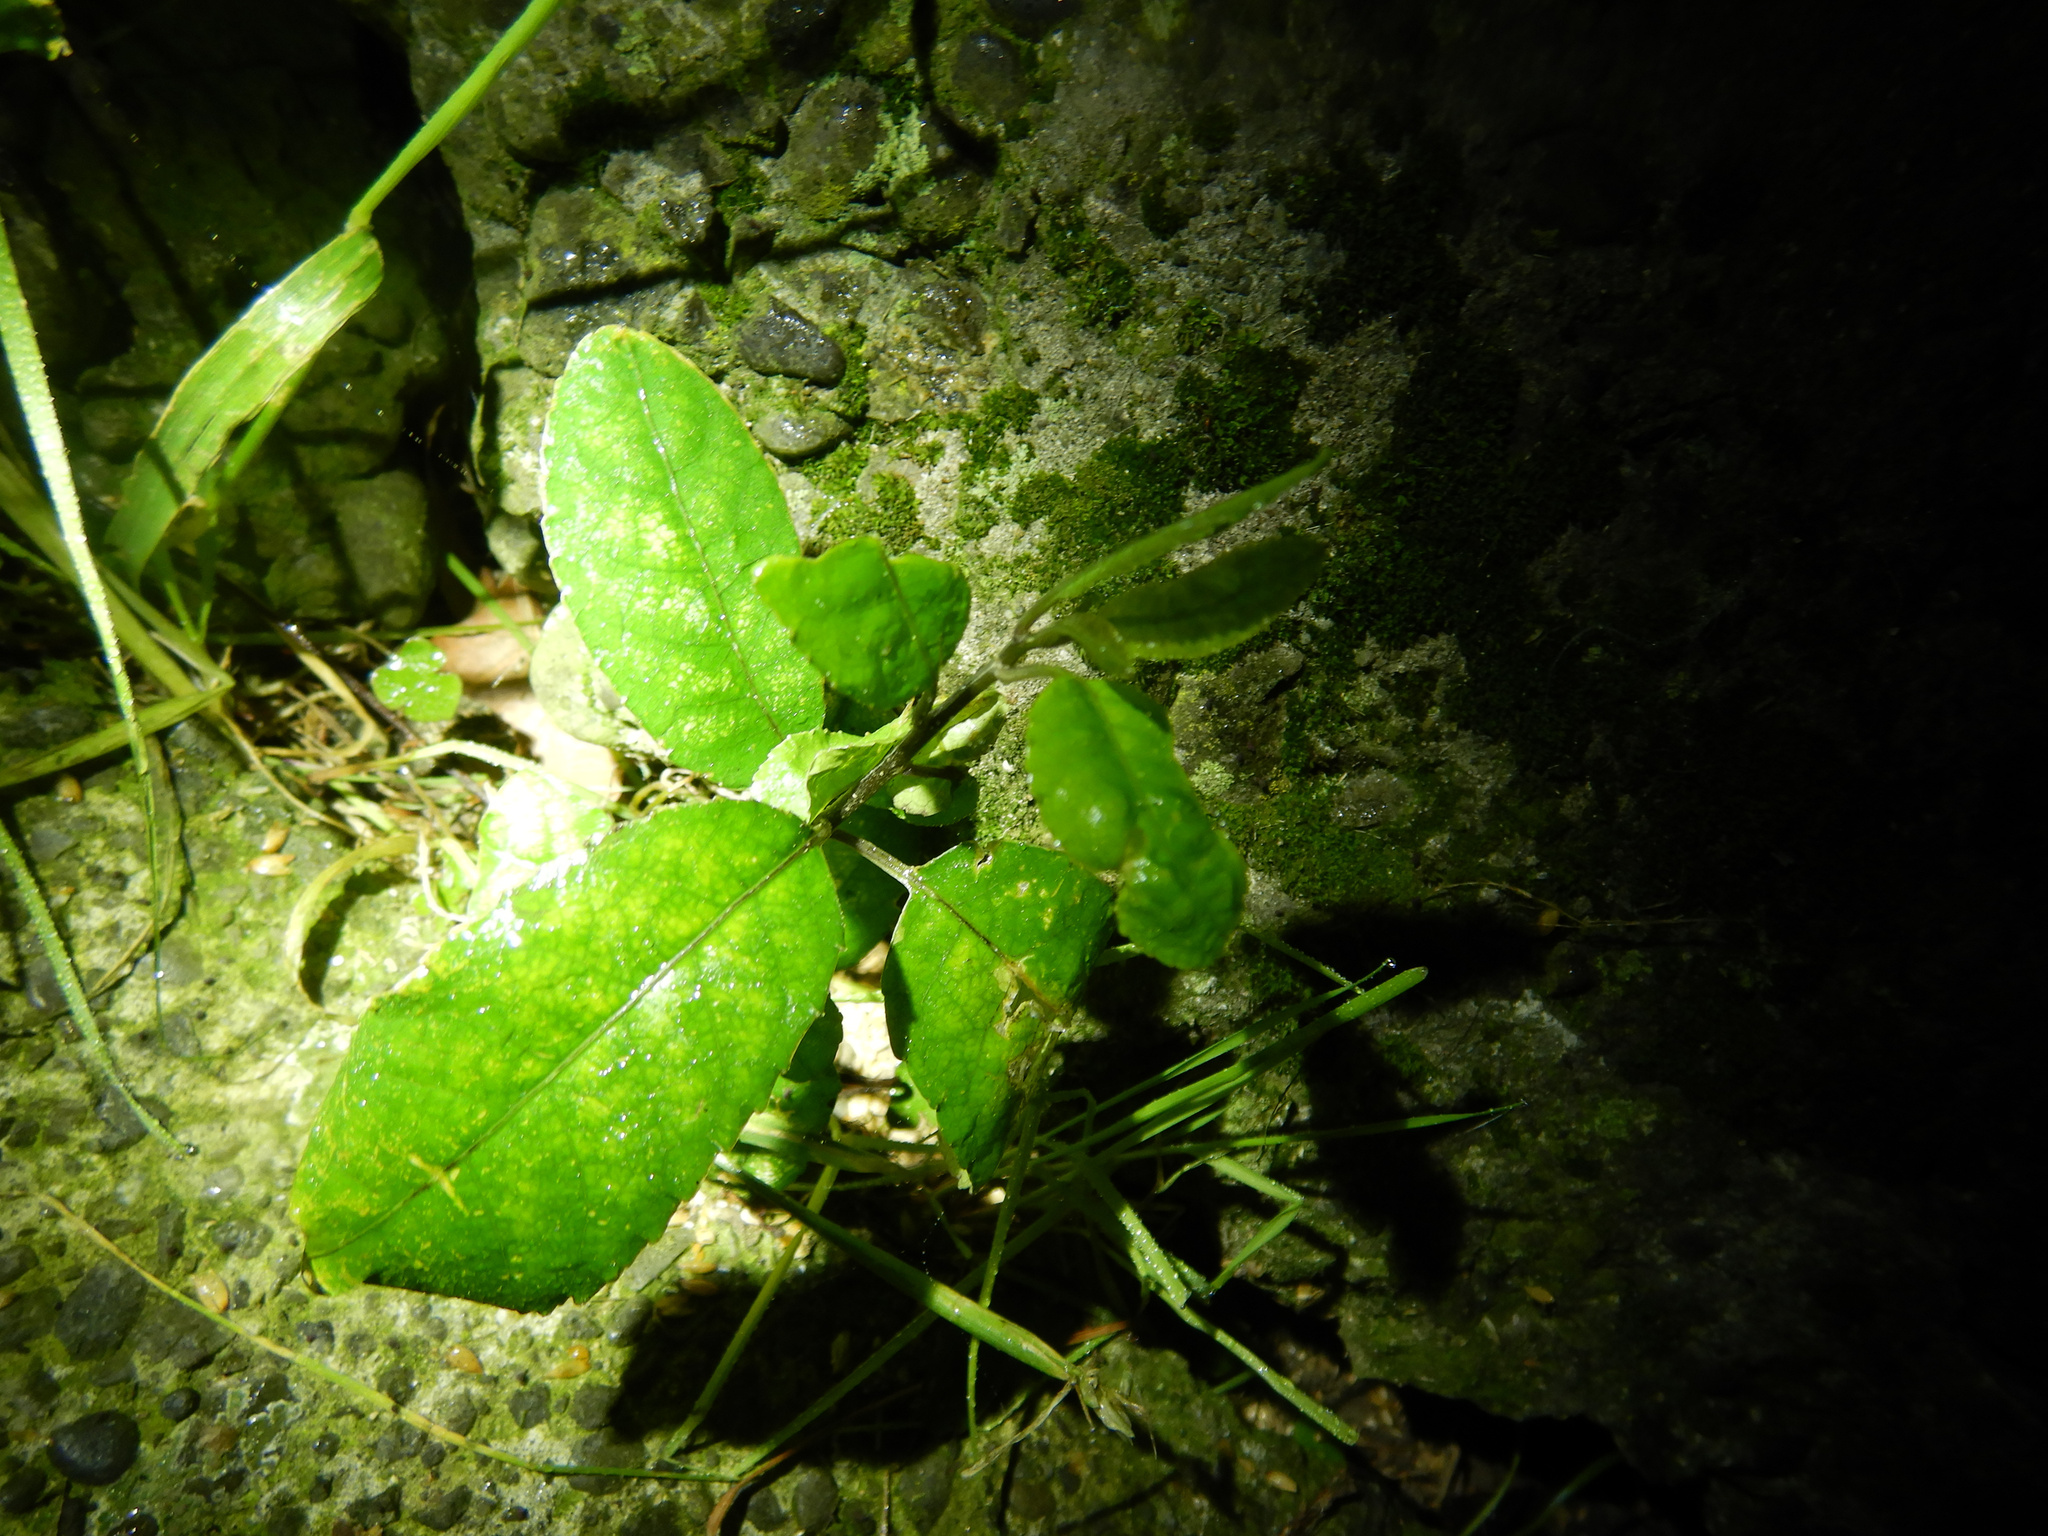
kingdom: Plantae
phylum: Tracheophyta
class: Magnoliopsida
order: Malpighiales
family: Violaceae
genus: Melicytus
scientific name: Melicytus ramiflorus
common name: Mahoe
